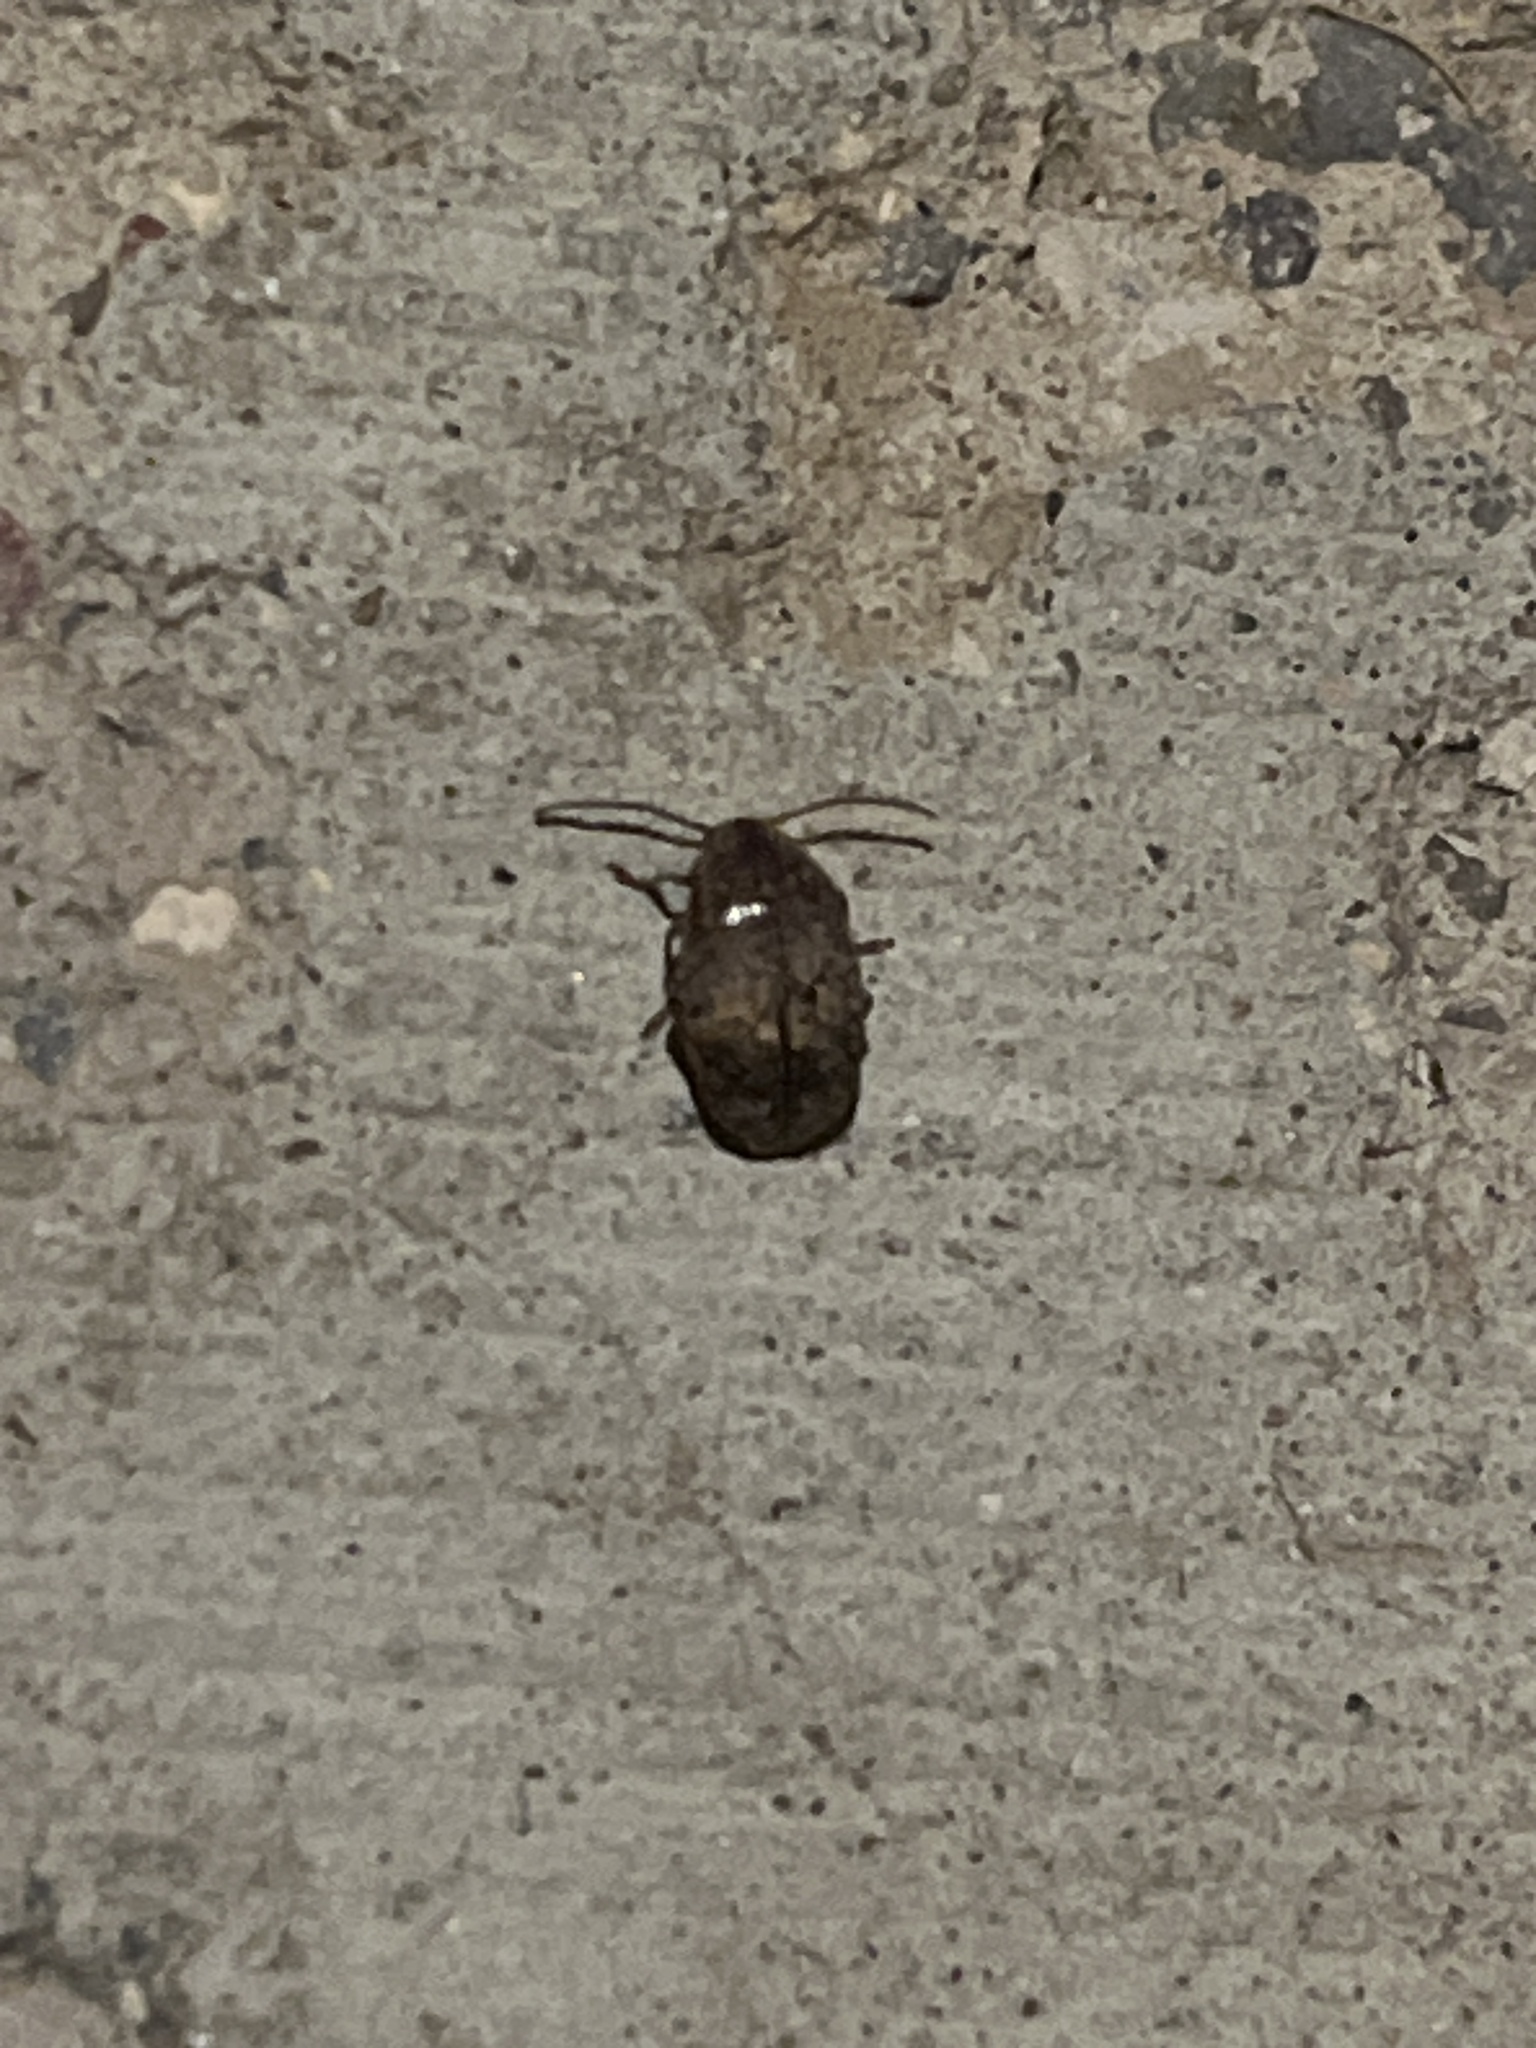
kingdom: Animalia
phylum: Arthropoda
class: Insecta
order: Coleoptera
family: Chrysomelidae
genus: Amblycerus
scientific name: Amblycerus robiniae
